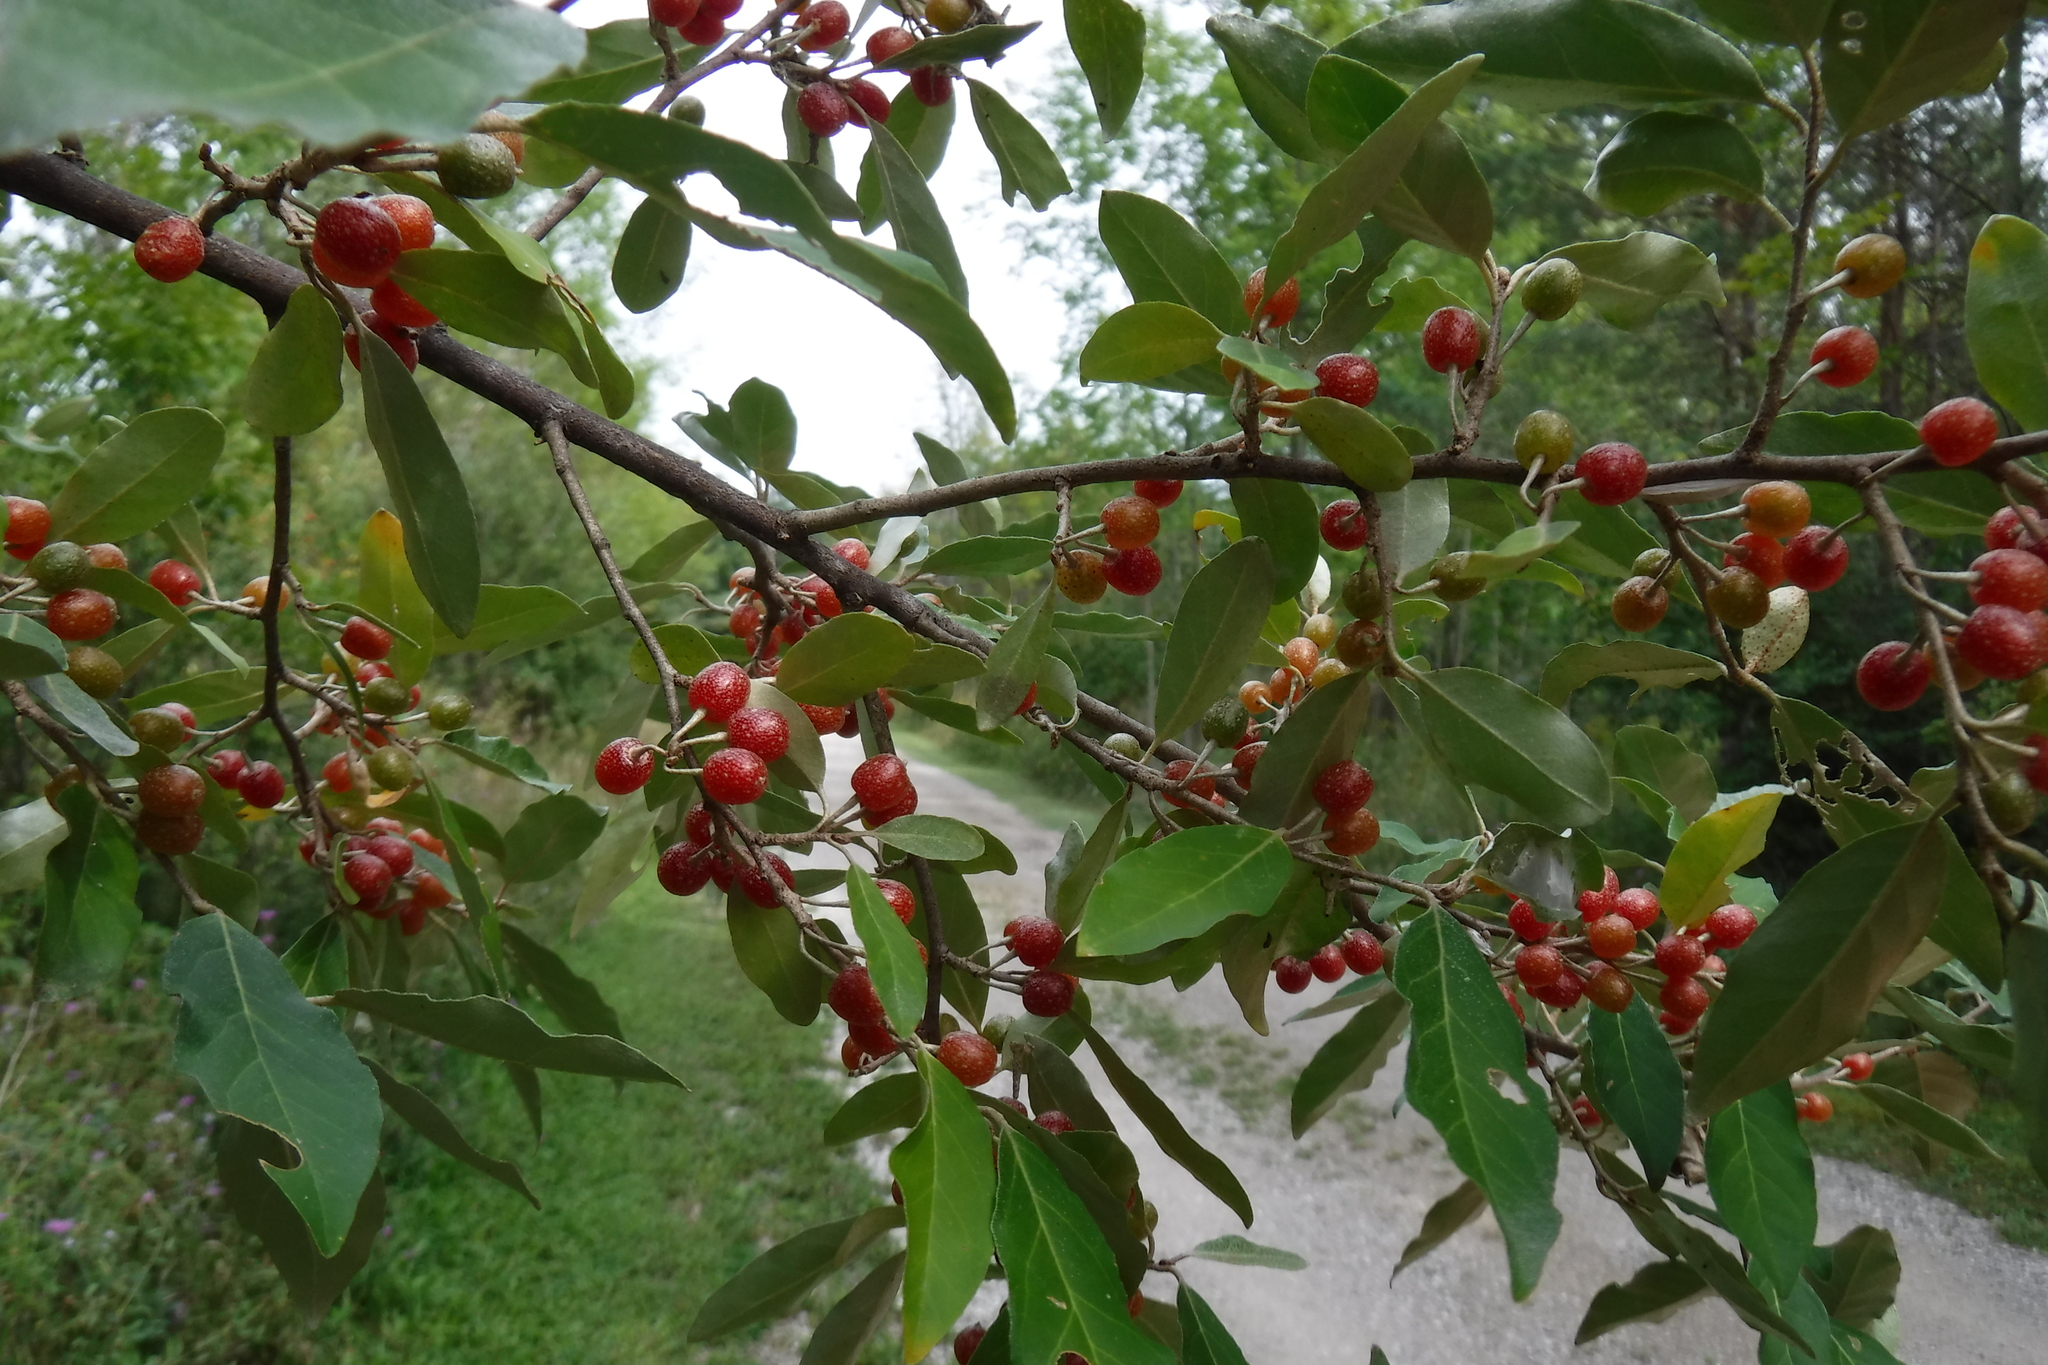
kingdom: Plantae
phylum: Tracheophyta
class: Magnoliopsida
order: Rosales
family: Elaeagnaceae
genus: Elaeagnus
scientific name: Elaeagnus umbellata
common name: Autumn olive
